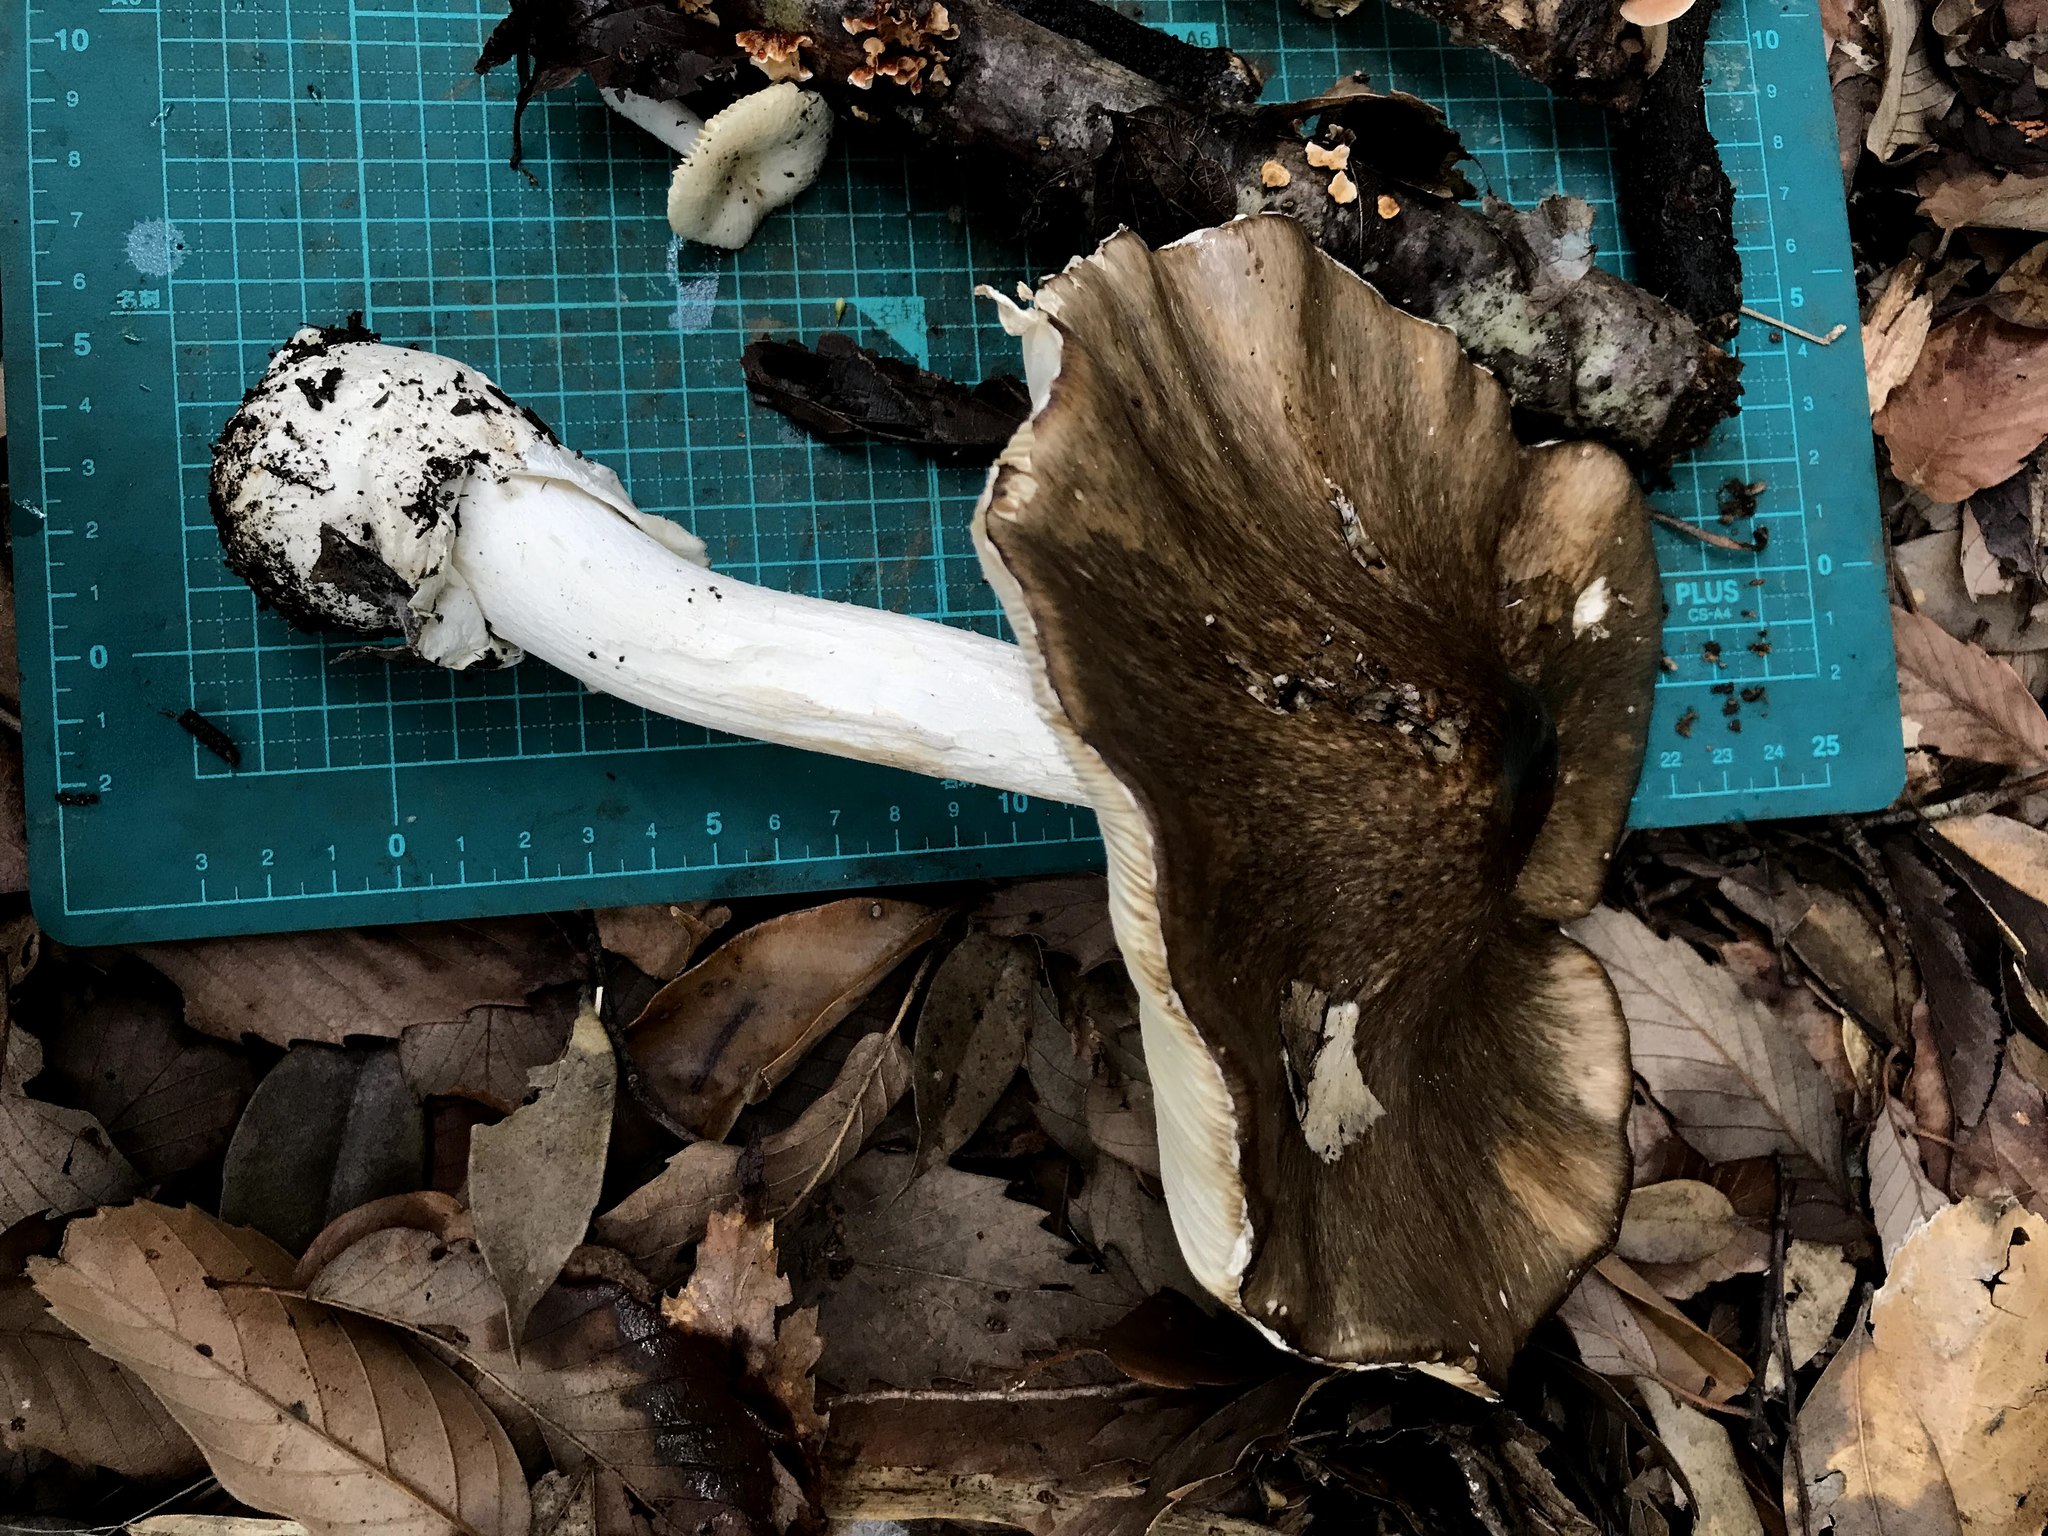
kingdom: Fungi
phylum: Basidiomycota
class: Agaricomycetes
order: Agaricales
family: Amanitaceae
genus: Amanita
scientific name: Amanita pseudoporphyria
